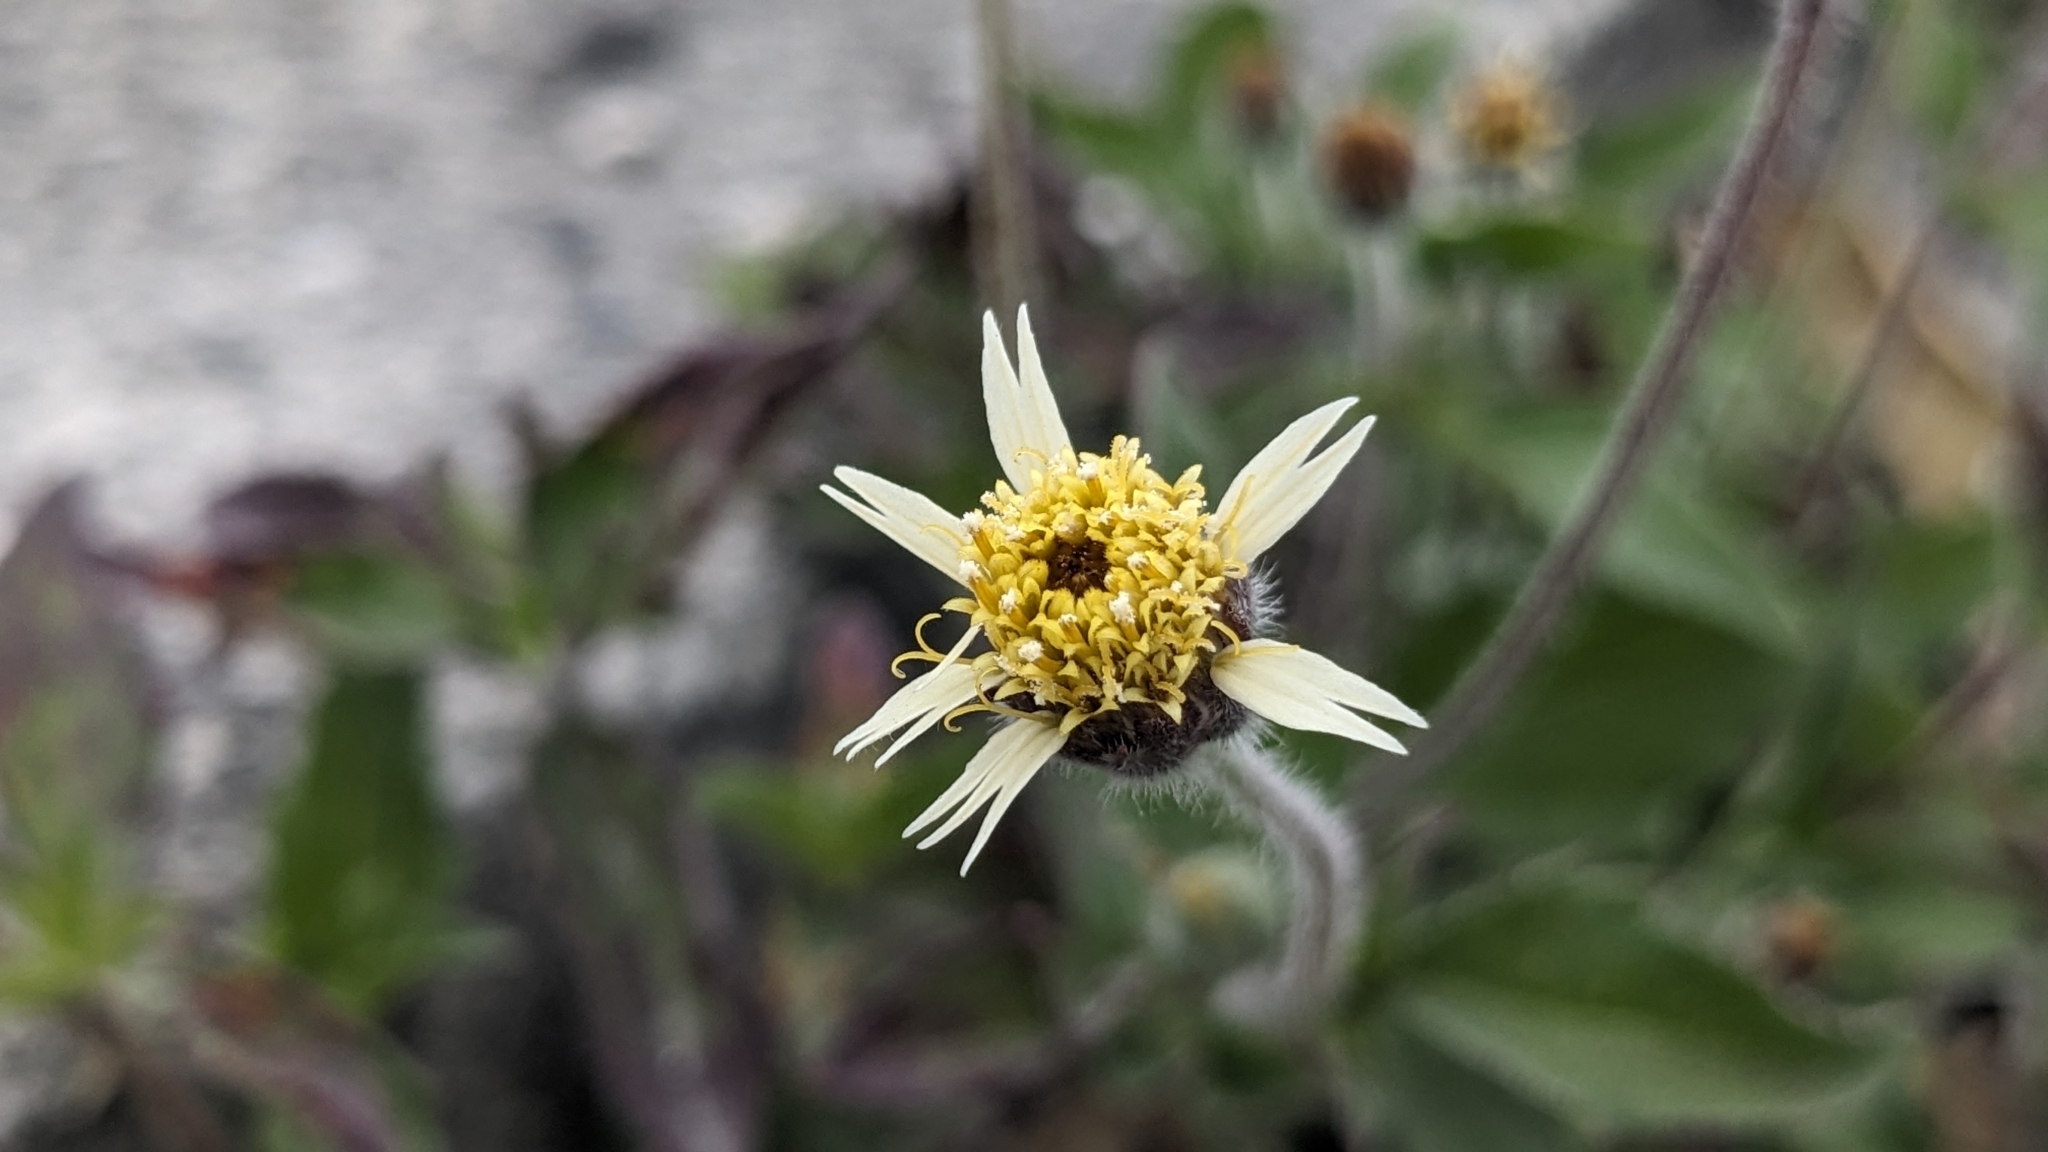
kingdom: Plantae
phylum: Tracheophyta
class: Magnoliopsida
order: Asterales
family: Asteraceae
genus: Tridax
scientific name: Tridax procumbens
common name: Coatbuttons
